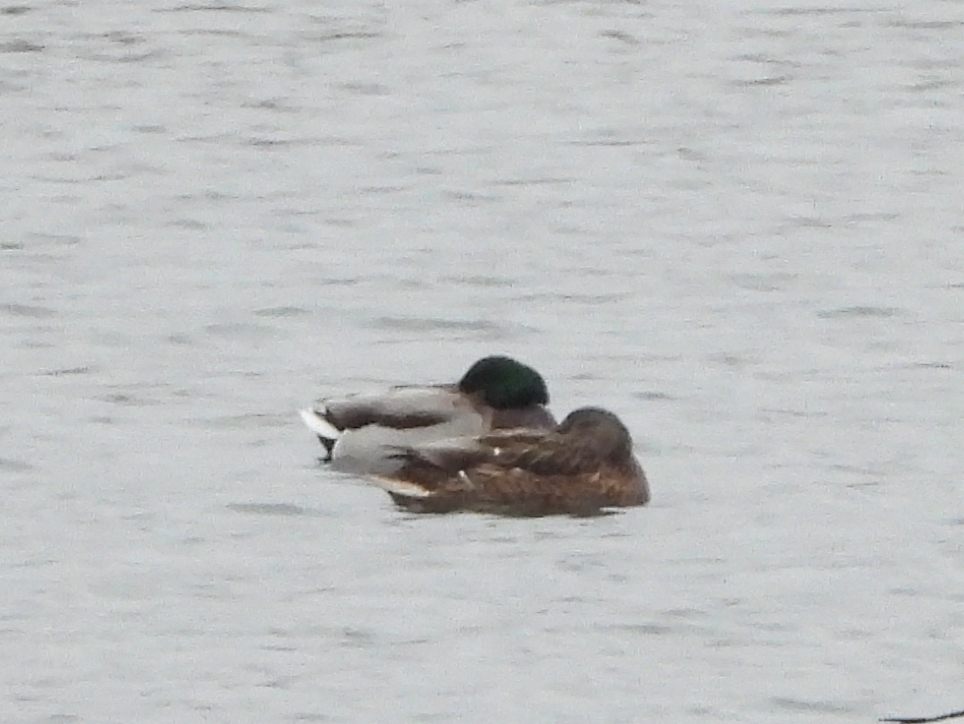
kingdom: Animalia
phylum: Chordata
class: Aves
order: Anseriformes
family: Anatidae
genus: Anas
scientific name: Anas platyrhynchos
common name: Mallard
